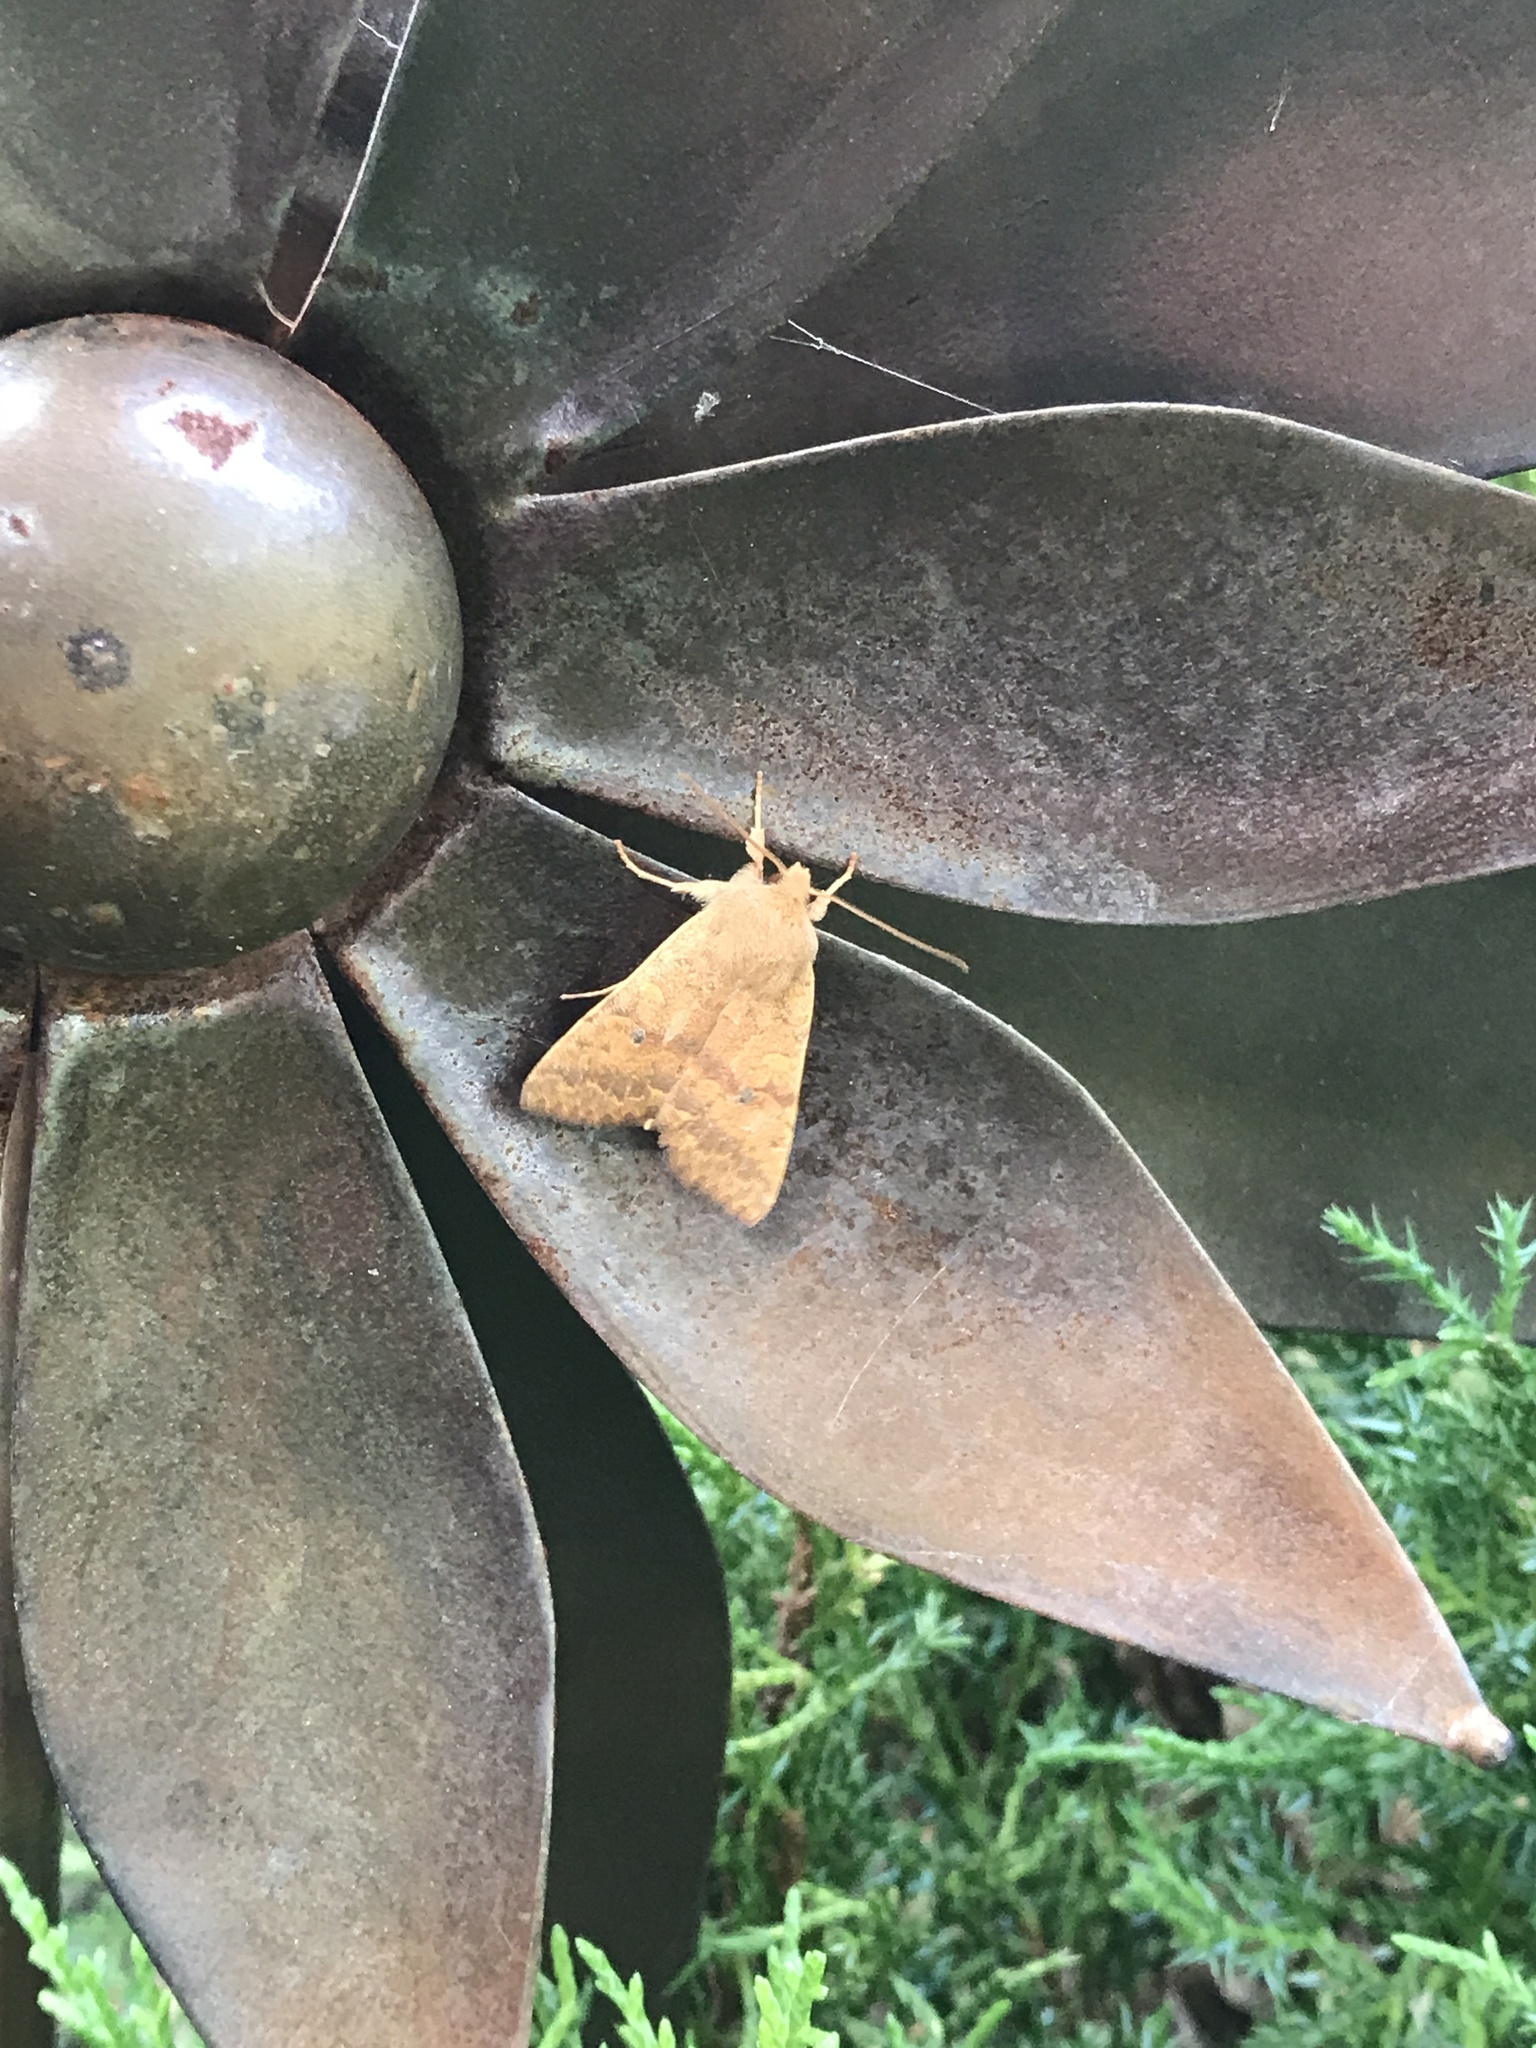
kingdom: Animalia
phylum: Arthropoda
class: Insecta
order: Lepidoptera
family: Noctuidae
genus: Agrochola
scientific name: Agrochola bicolorago
